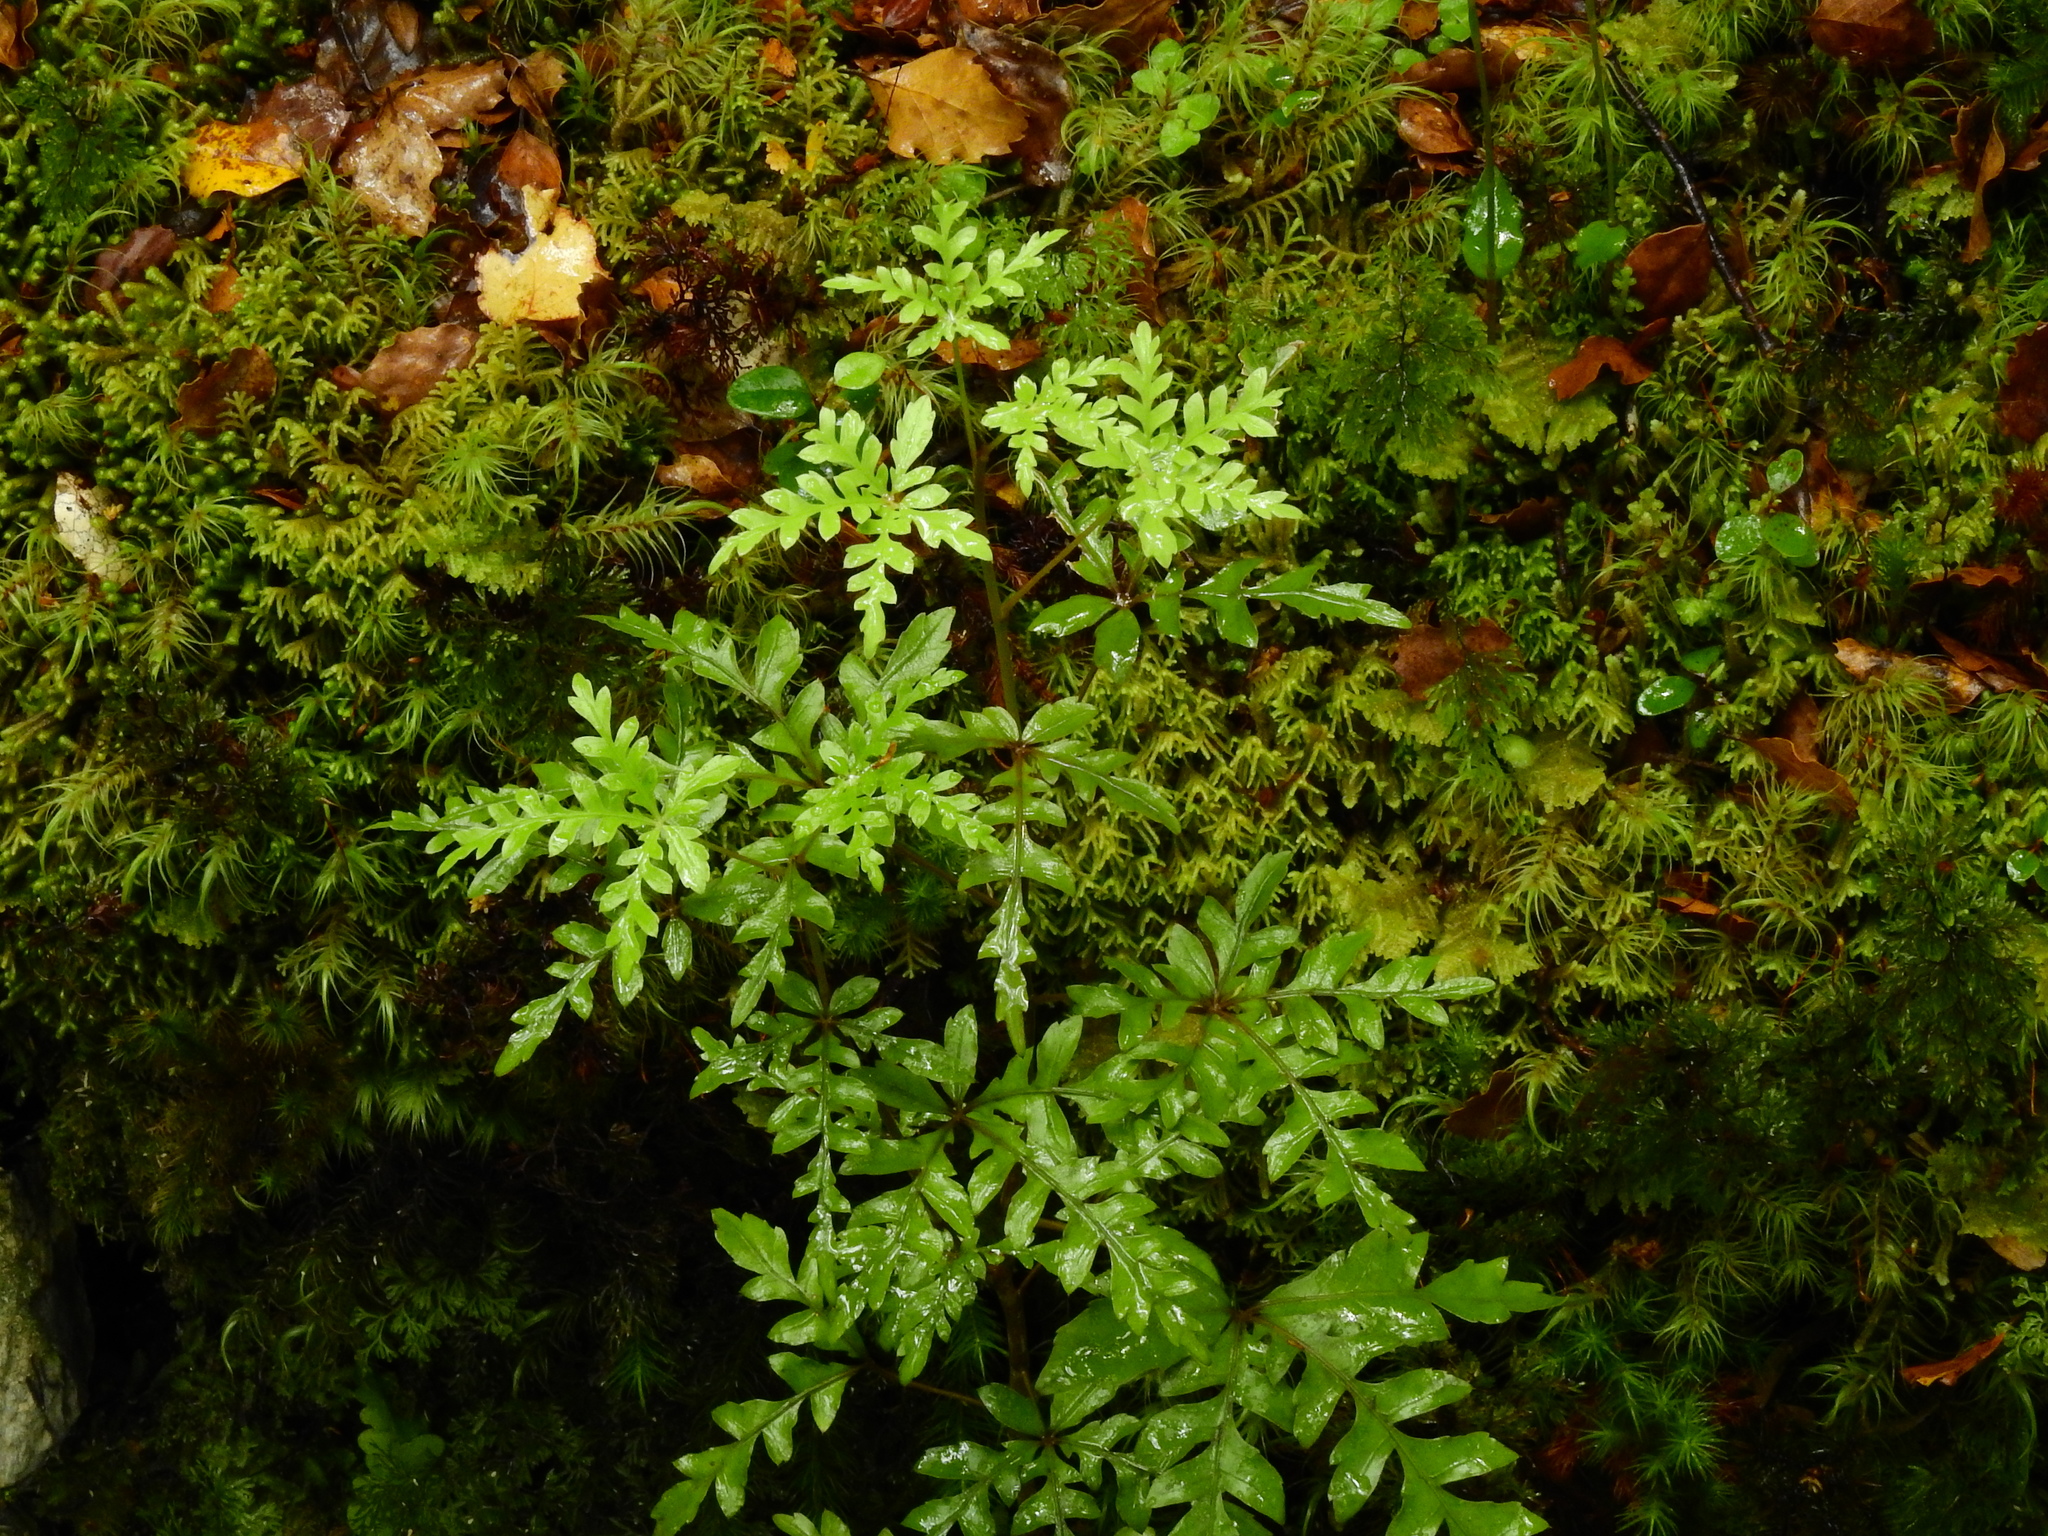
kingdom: Plantae
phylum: Tracheophyta
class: Magnoliopsida
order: Apiales
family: Araliaceae
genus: Raukaua
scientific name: Raukaua simplex
